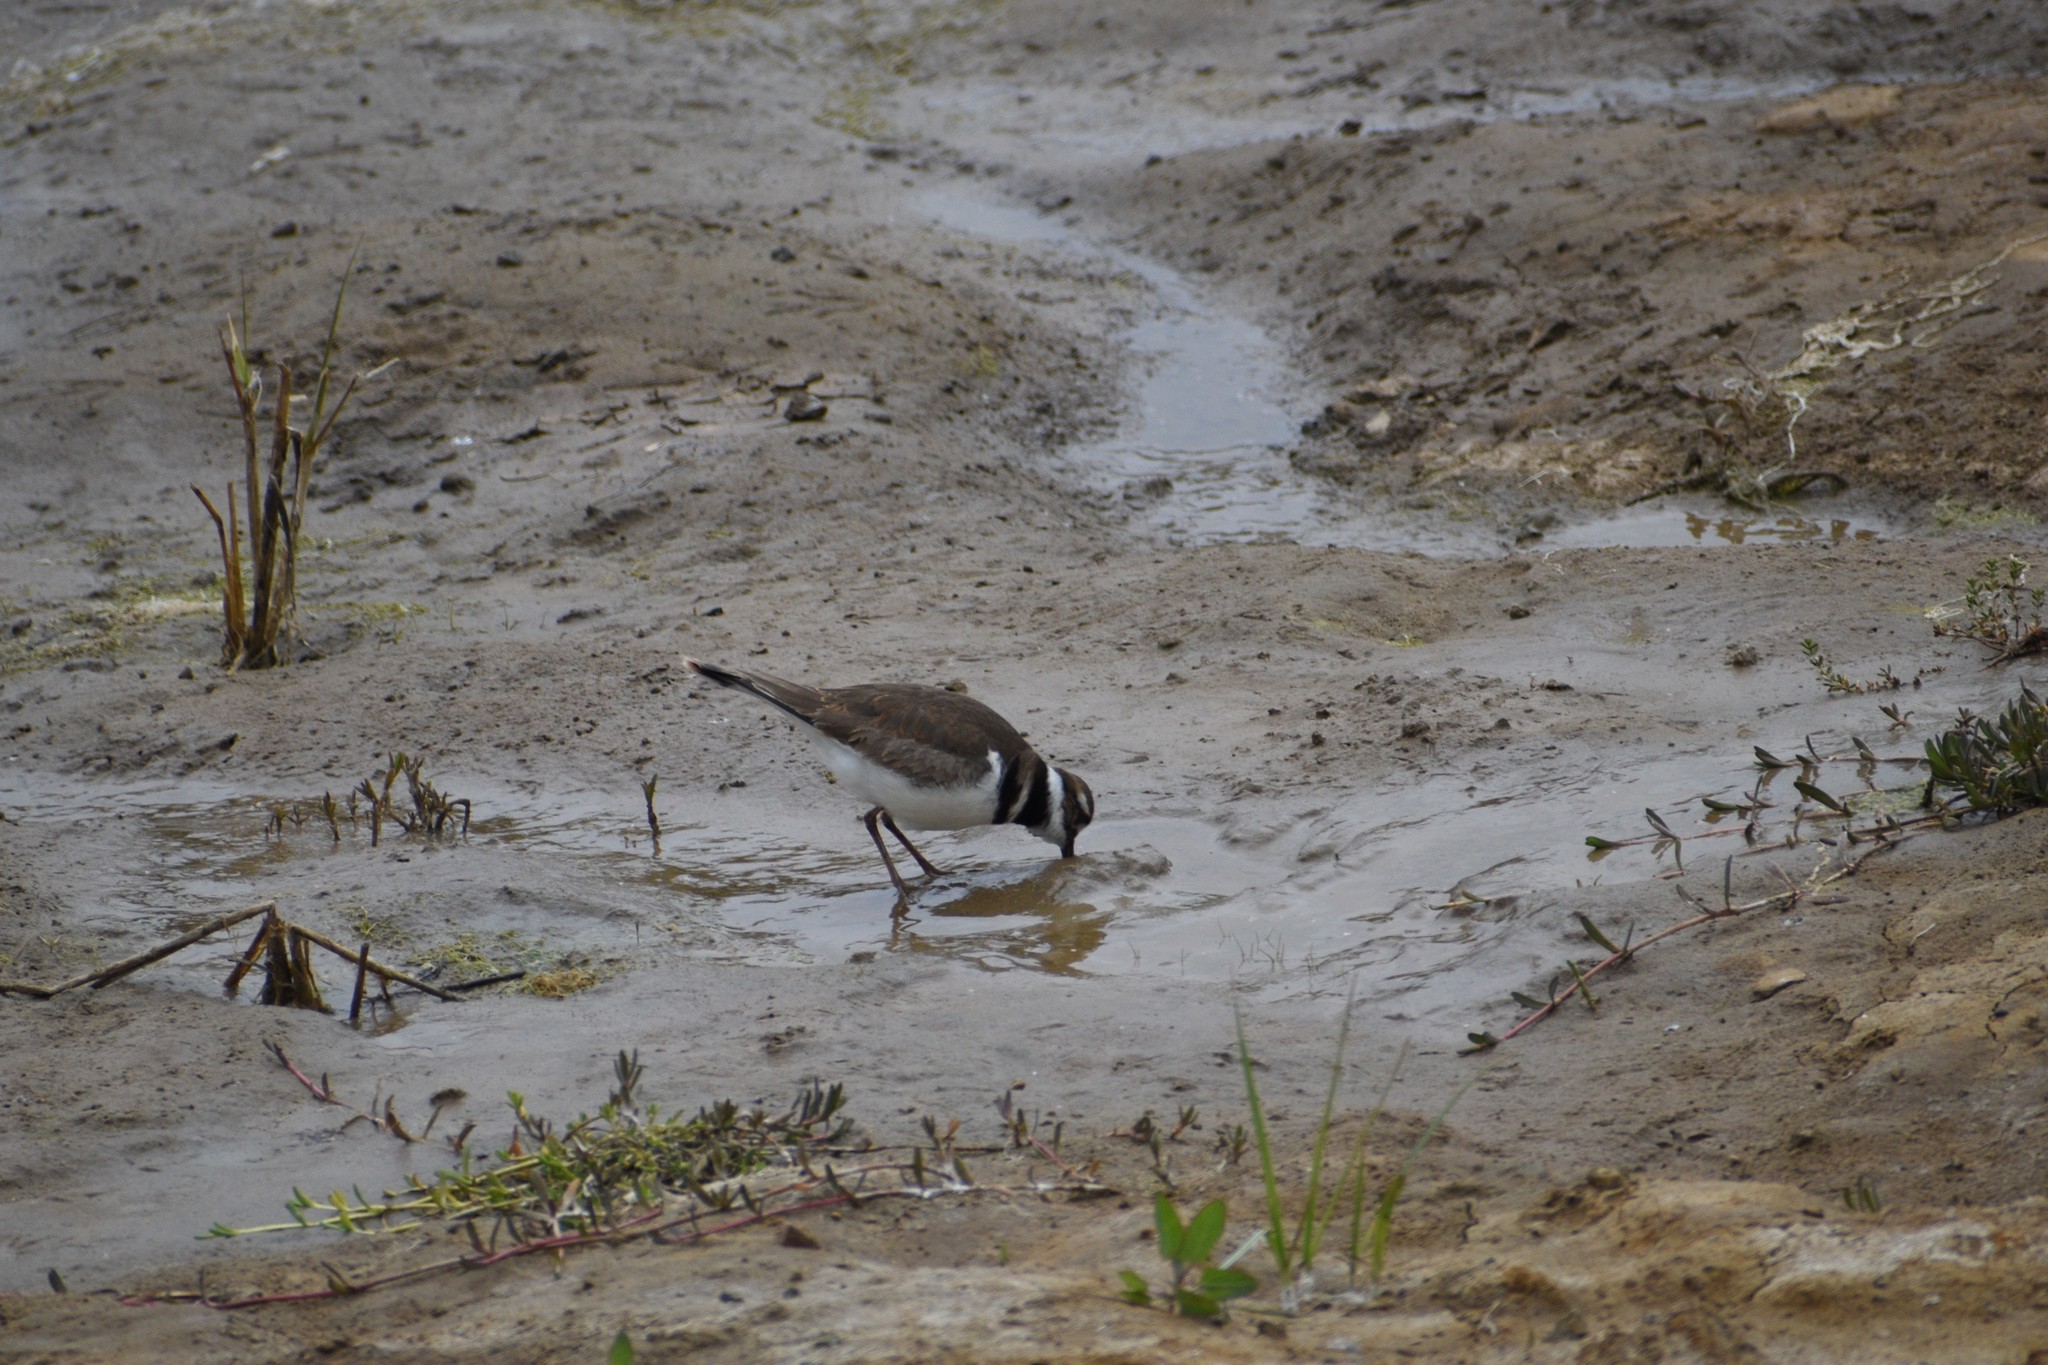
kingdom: Animalia
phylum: Chordata
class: Aves
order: Charadriiformes
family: Charadriidae
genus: Charadrius
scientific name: Charadrius vociferus
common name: Killdeer
